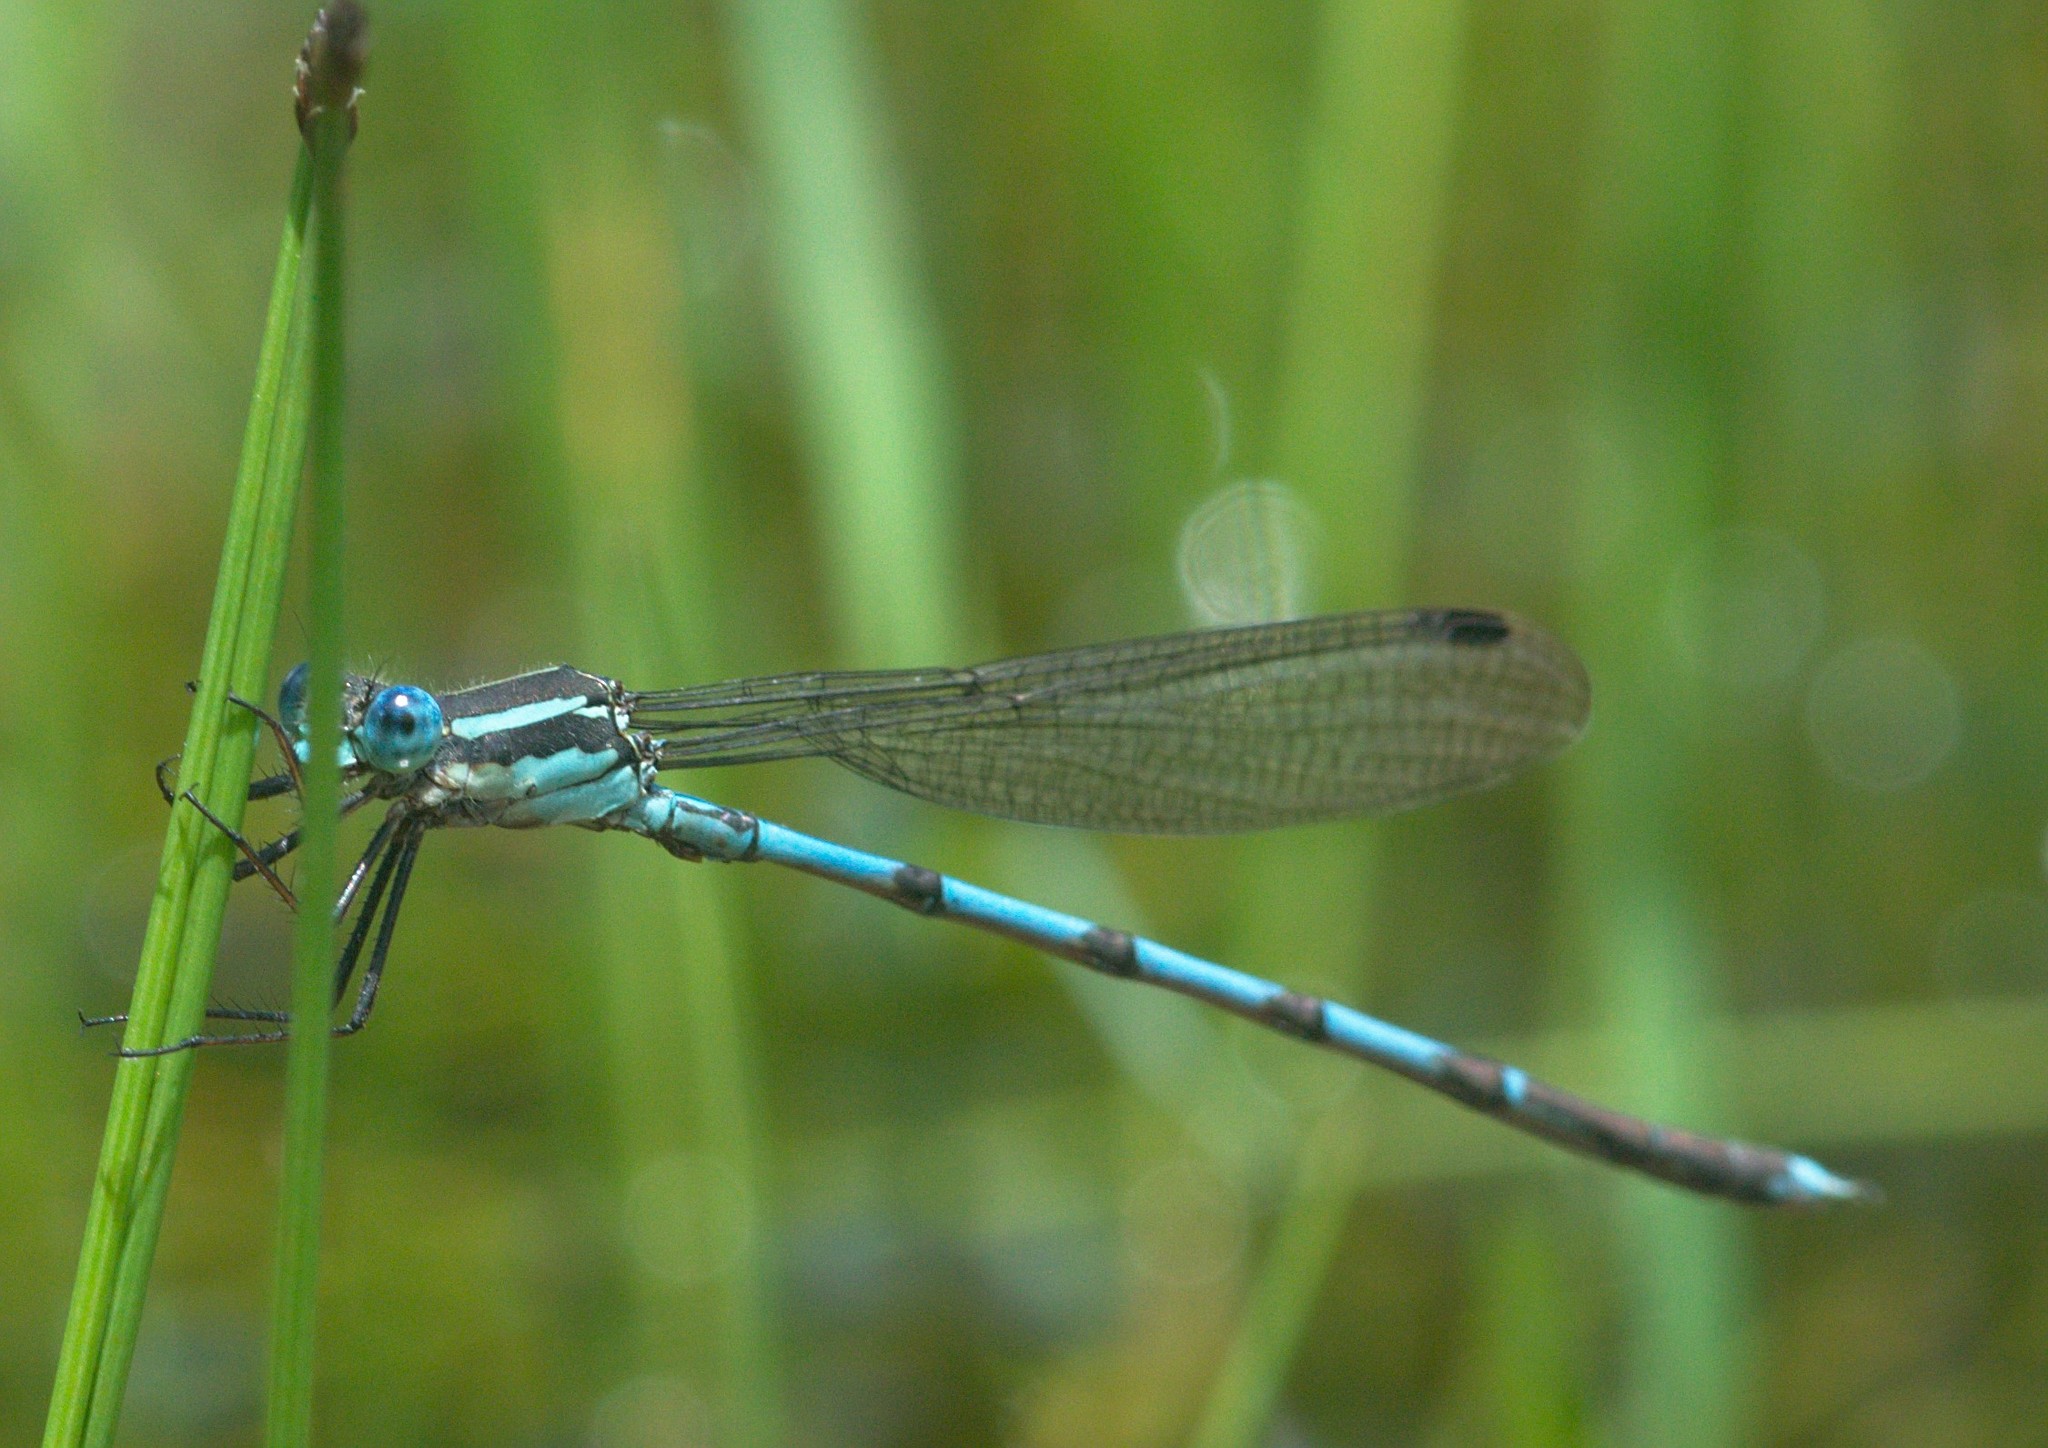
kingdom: Animalia
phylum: Arthropoda
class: Insecta
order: Odonata
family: Lestidae
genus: Indolestes
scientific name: Indolestes cyaneus
